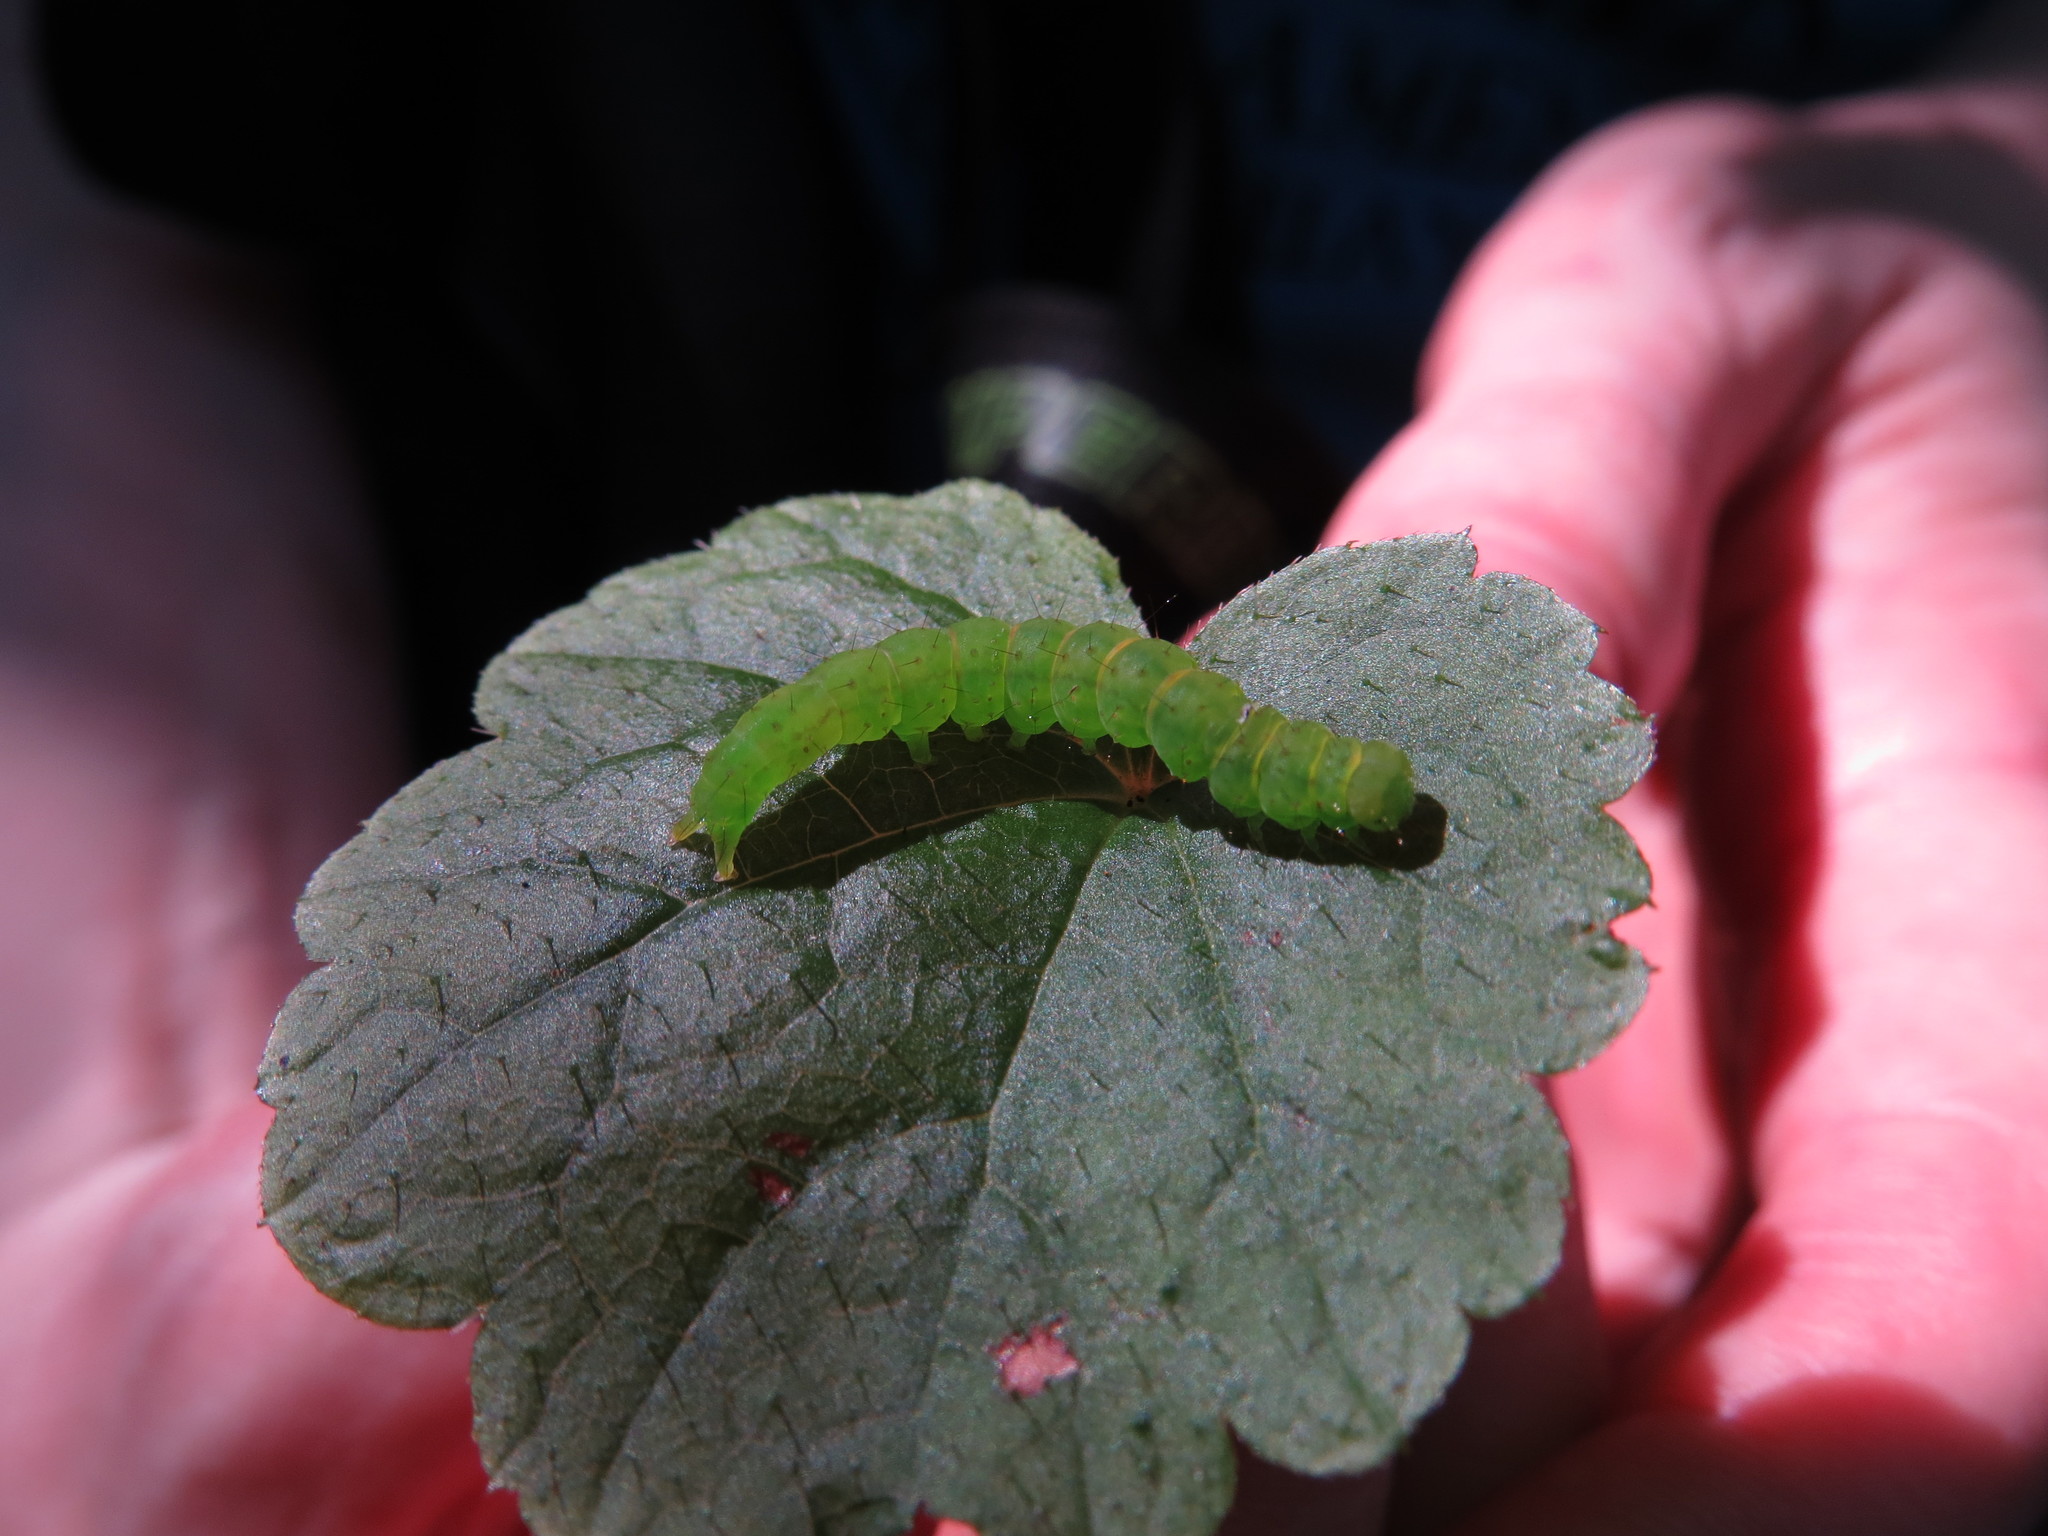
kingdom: Animalia
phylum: Arthropoda
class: Insecta
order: Lepidoptera
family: Erebidae
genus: Hypena
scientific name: Hypena baltimoralis
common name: Baltimore snout
